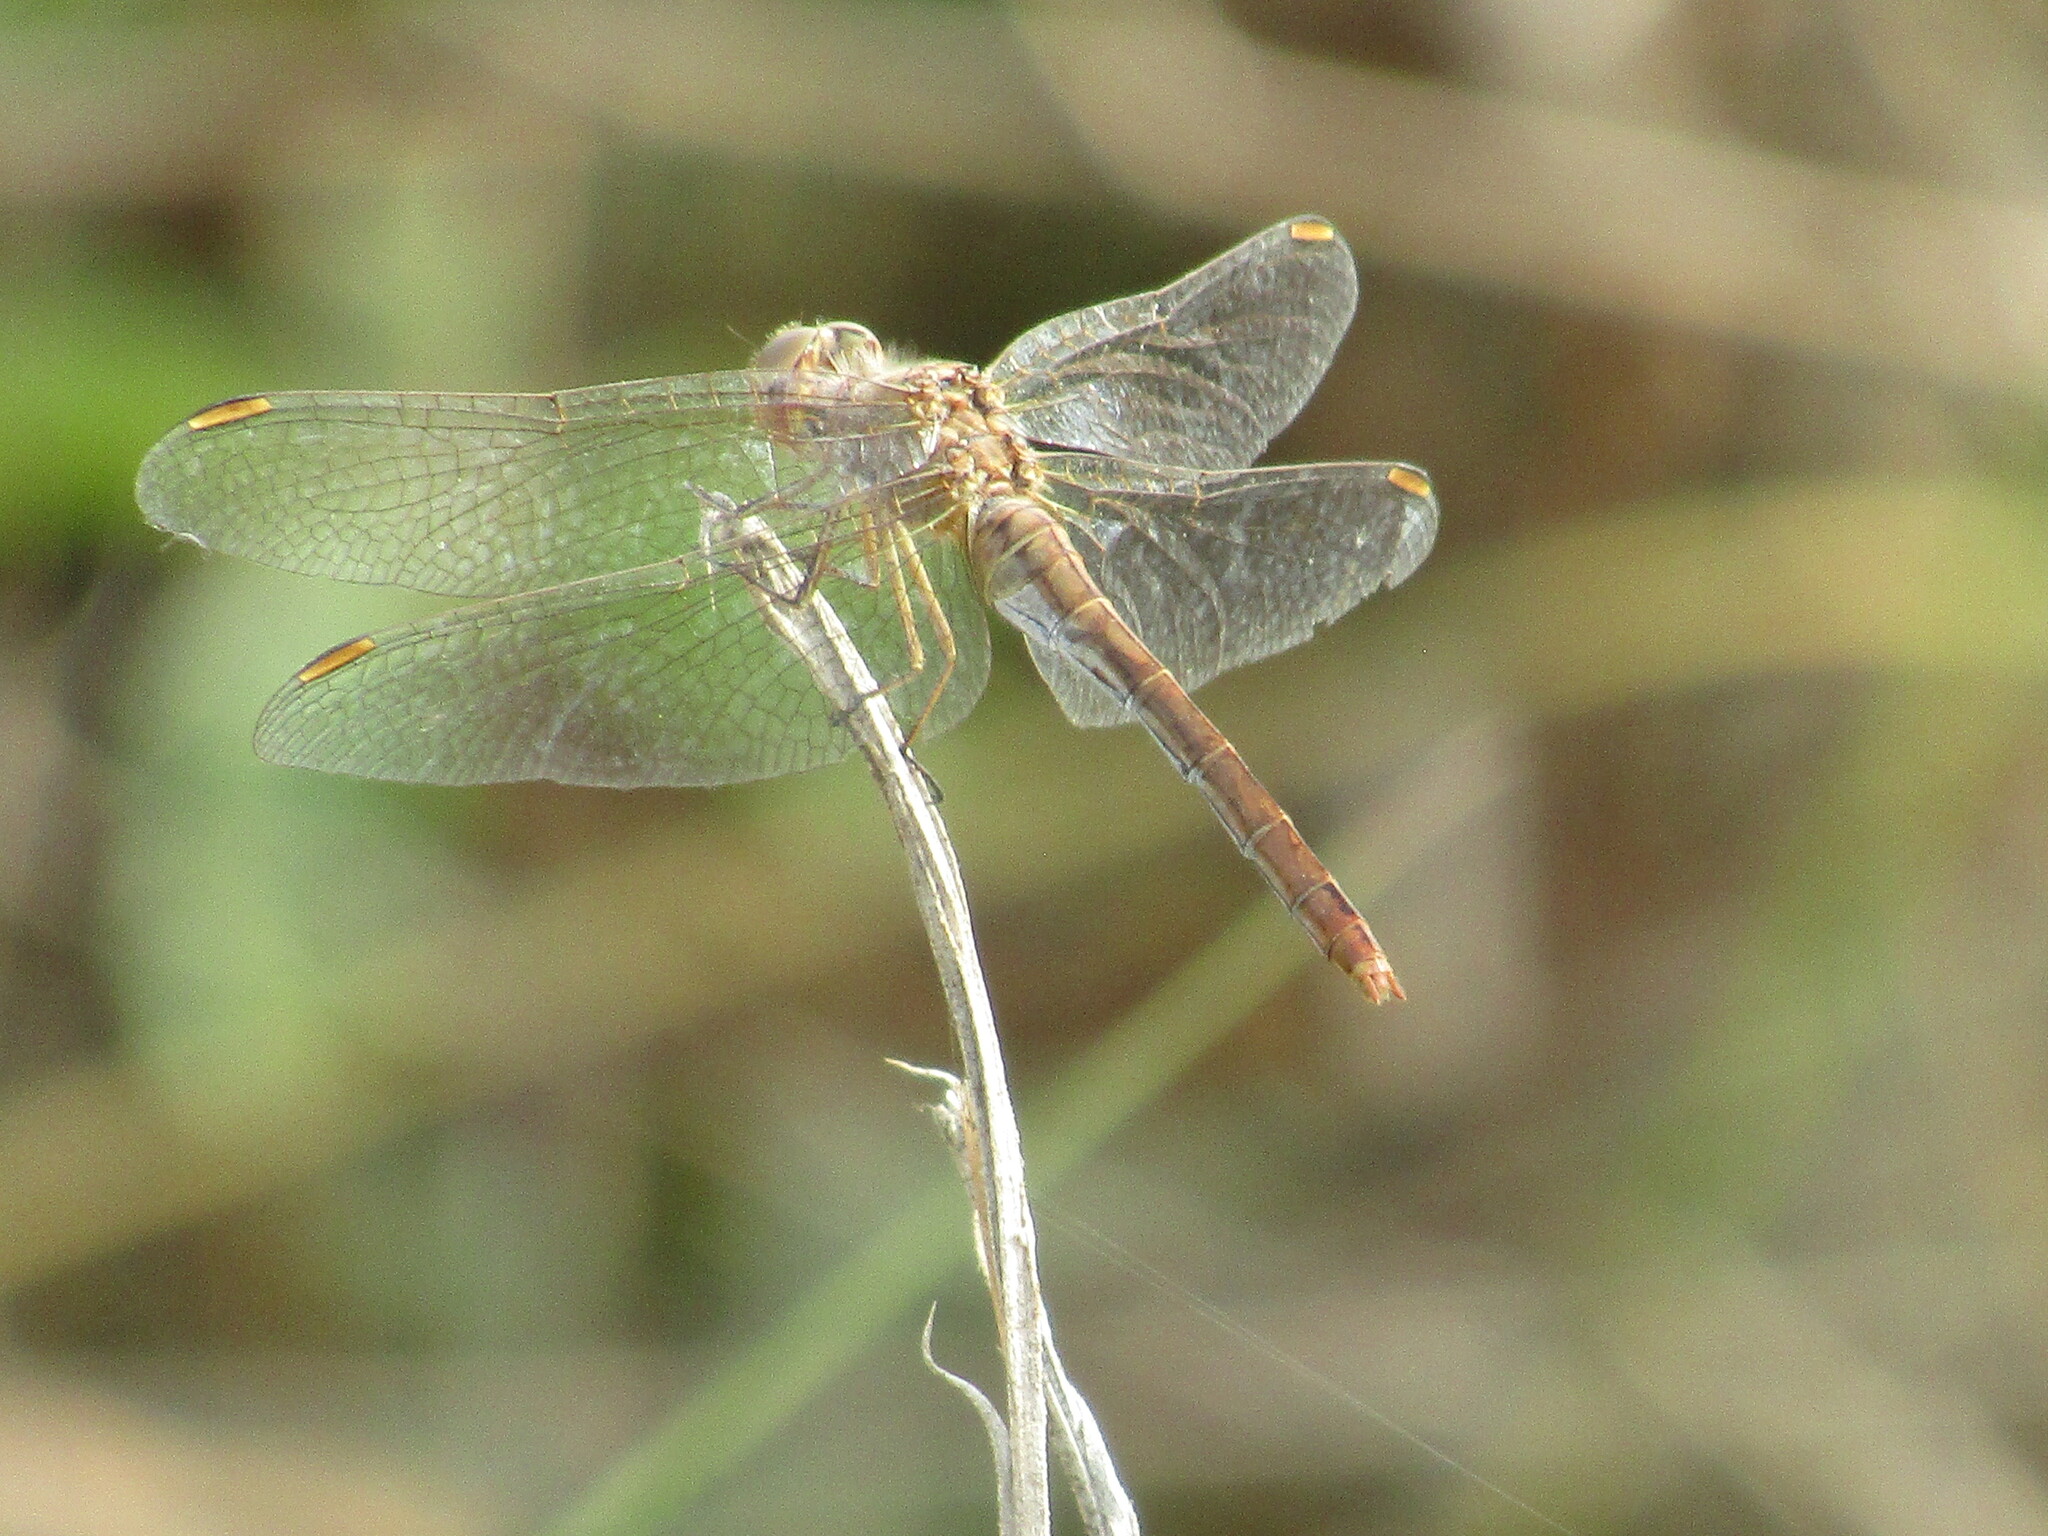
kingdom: Animalia
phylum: Arthropoda
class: Insecta
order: Odonata
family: Libellulidae
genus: Sympetrum
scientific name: Sympetrum meridionale
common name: Southern darter
